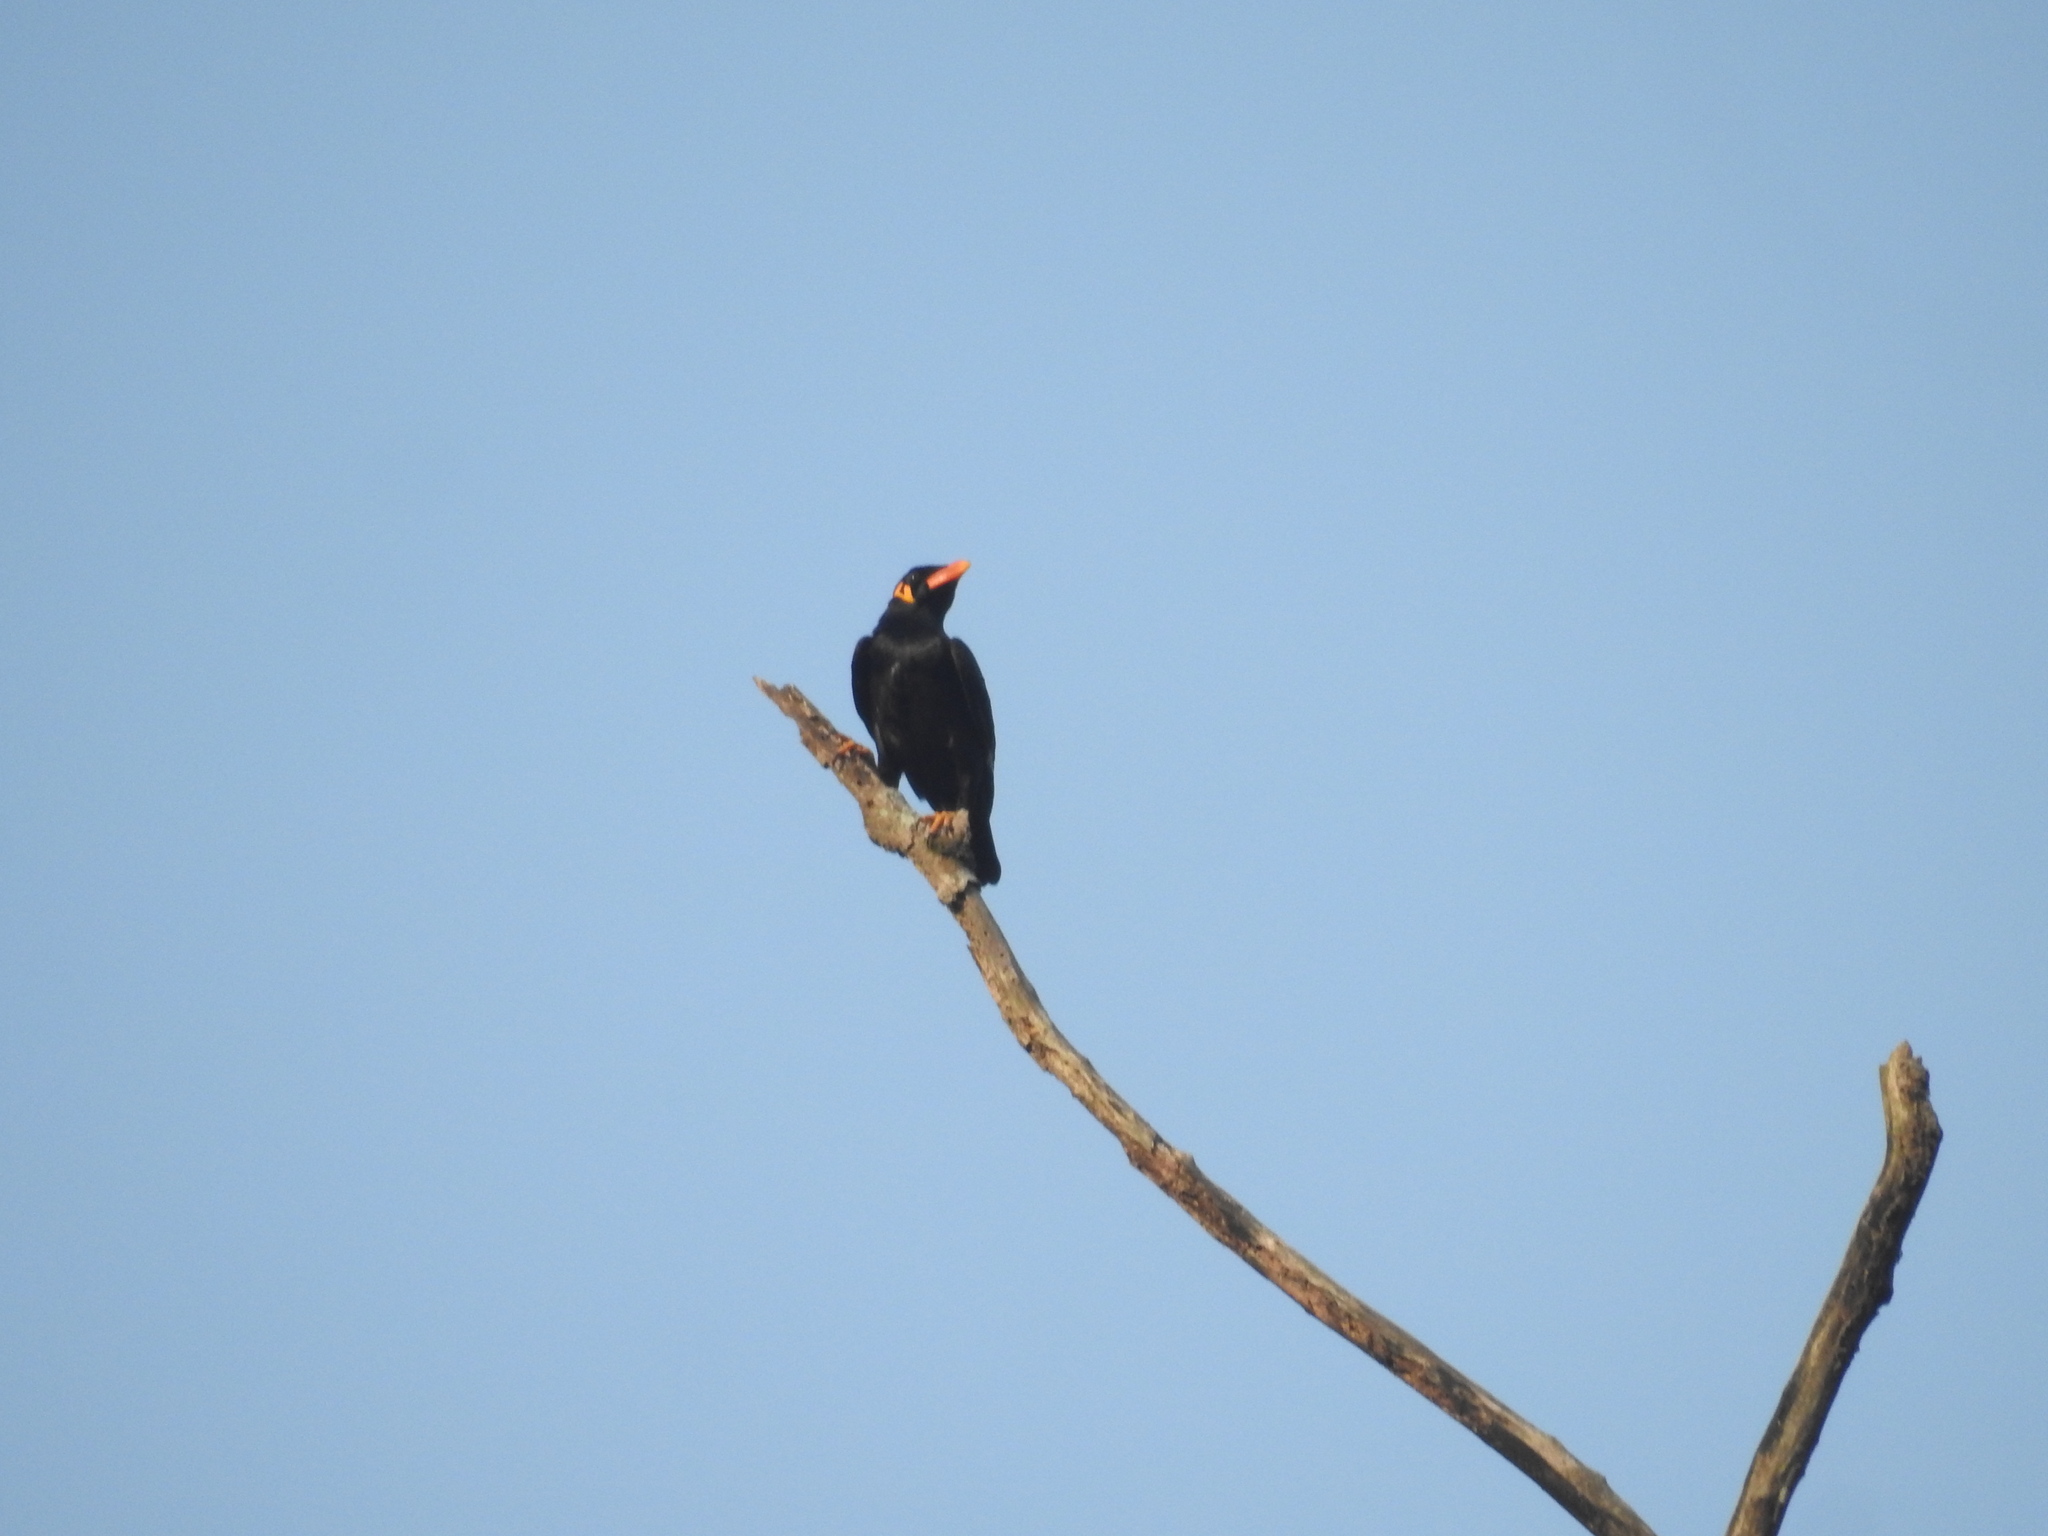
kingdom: Animalia
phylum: Chordata
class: Aves
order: Passeriformes
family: Sturnidae
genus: Gracula
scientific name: Gracula religiosa
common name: Common hill myna
